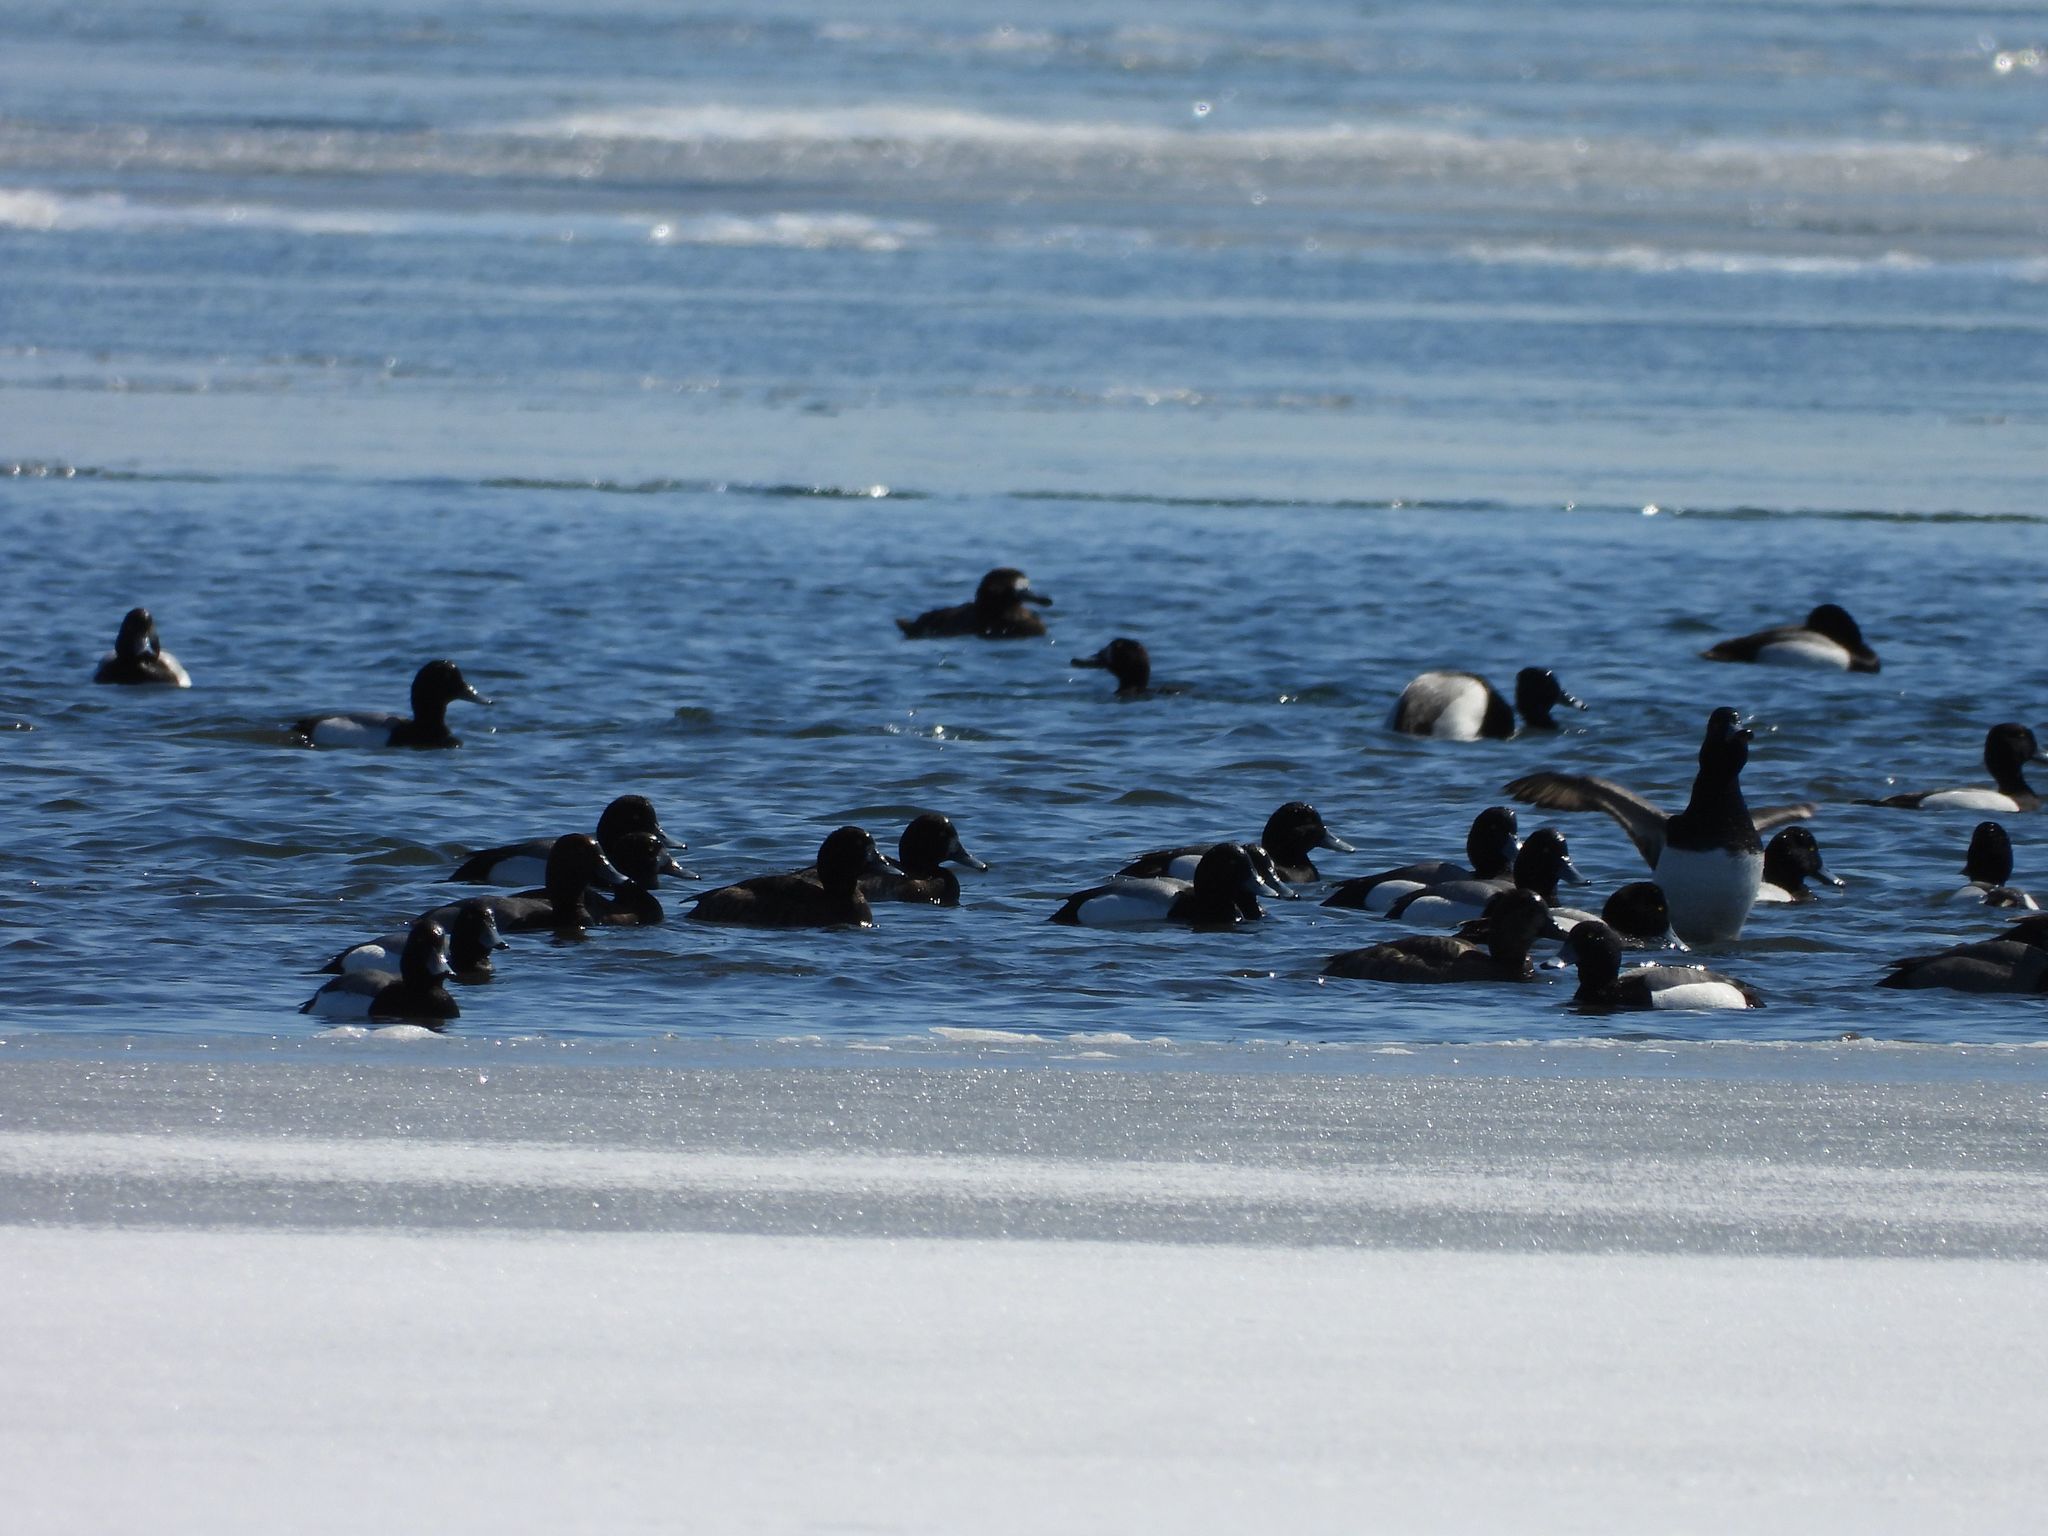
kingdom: Animalia
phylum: Chordata
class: Aves
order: Anseriformes
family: Anatidae
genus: Aythya
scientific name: Aythya marila
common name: Greater scaup
